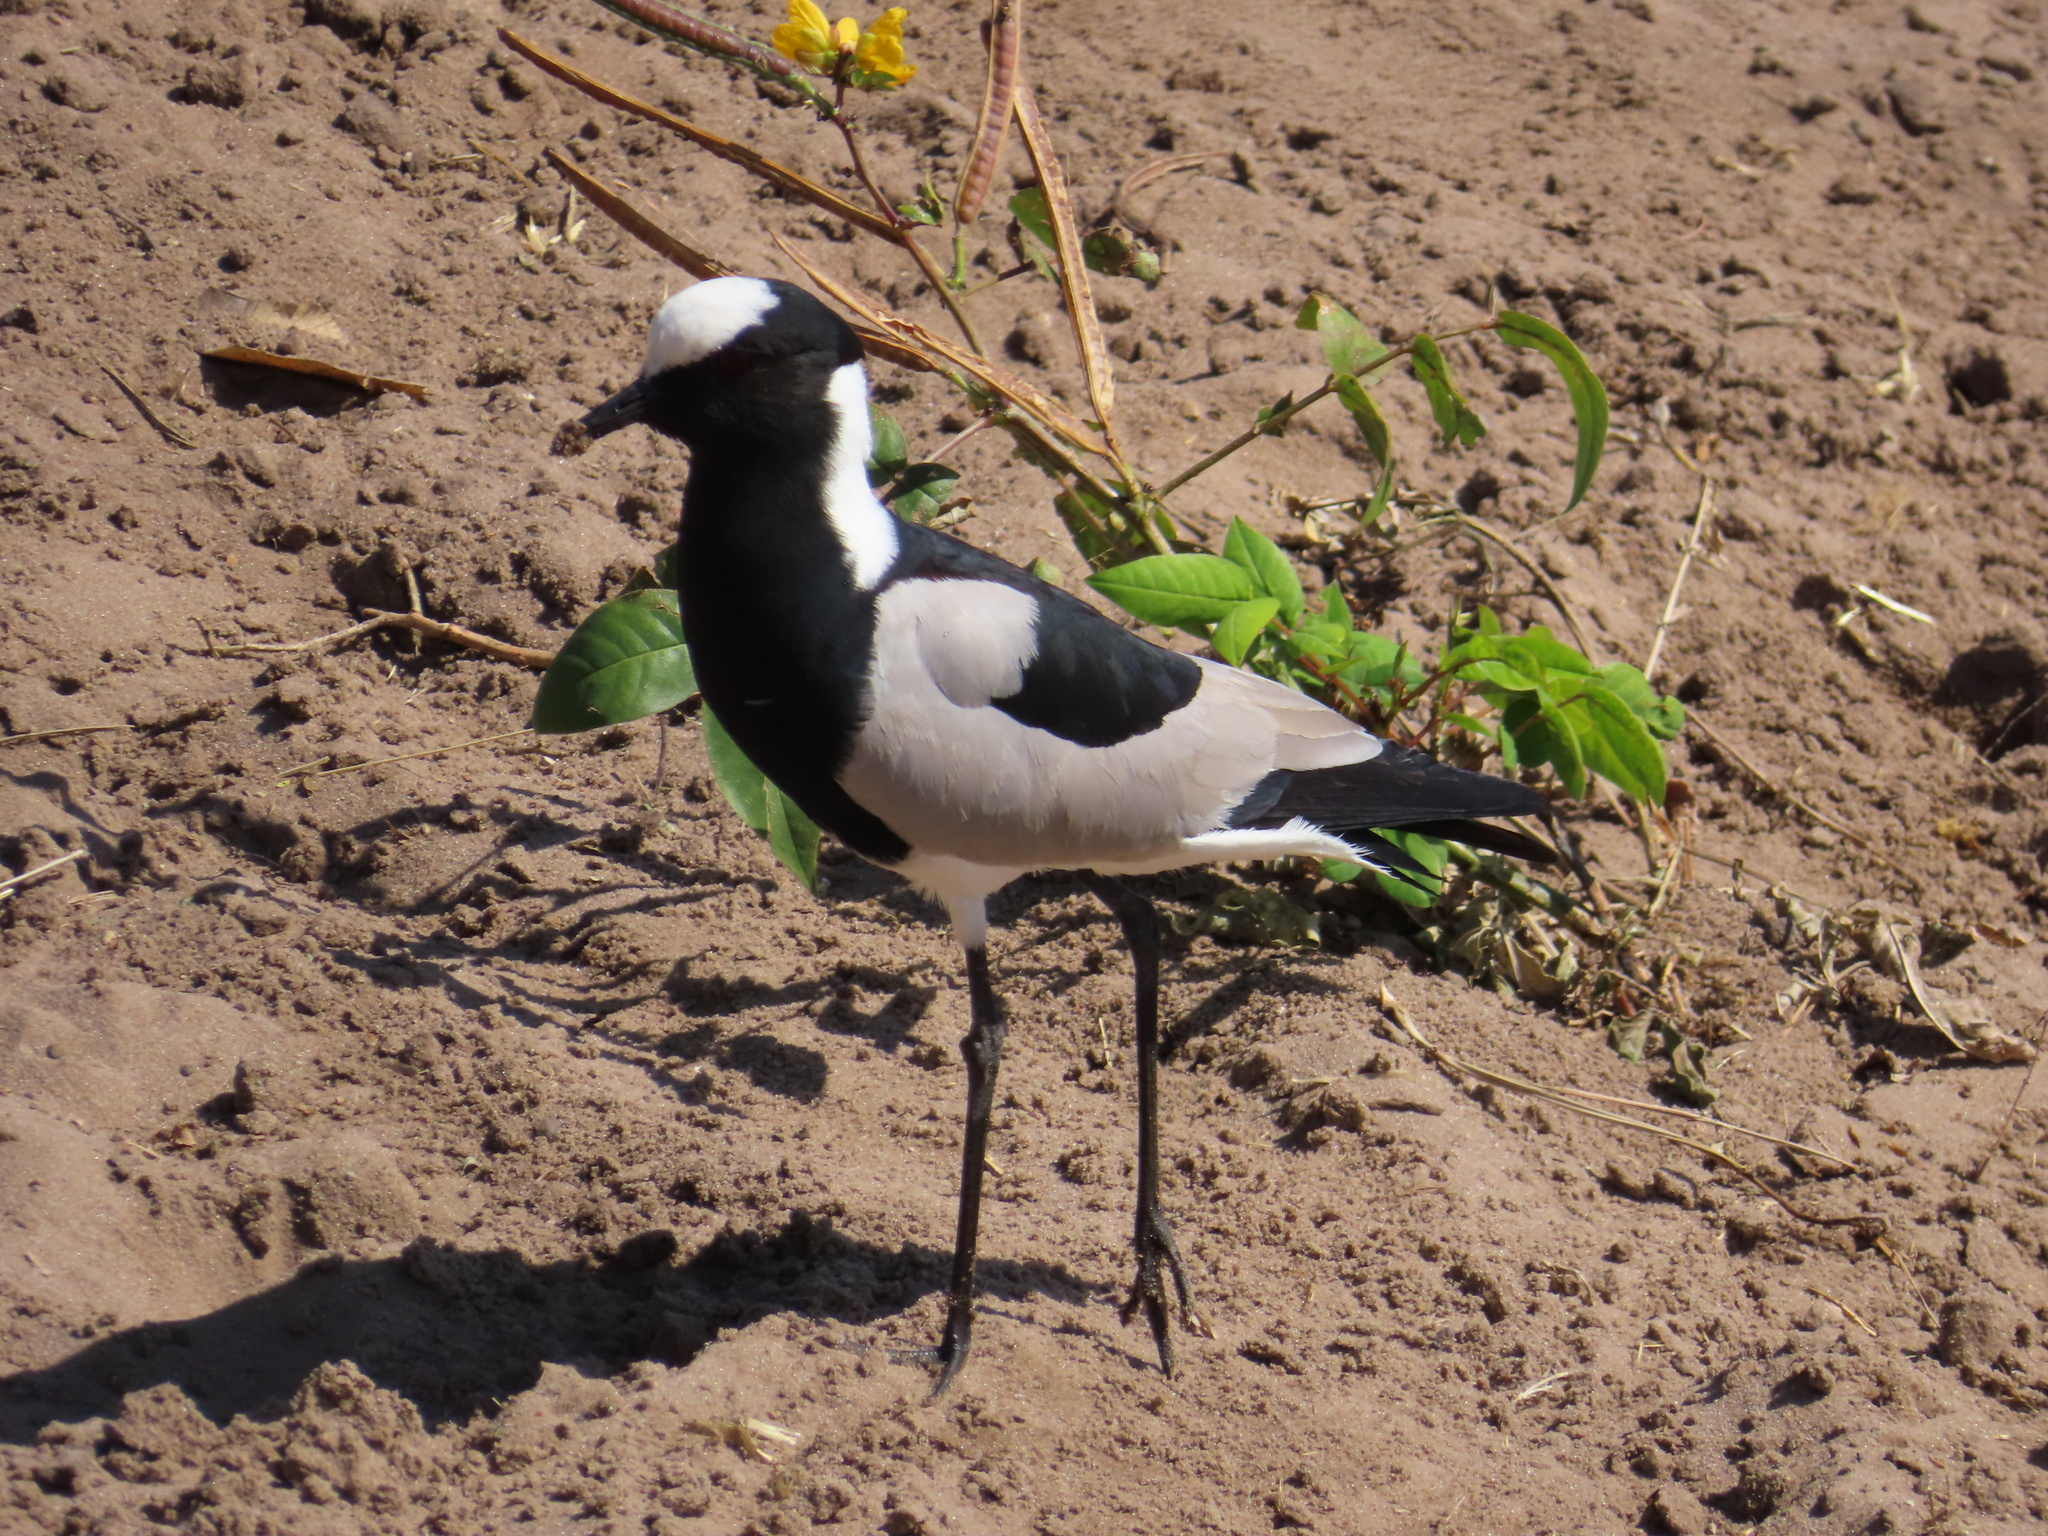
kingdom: Animalia
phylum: Chordata
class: Aves
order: Charadriiformes
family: Charadriidae
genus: Vanellus
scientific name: Vanellus armatus
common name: Blacksmith lapwing
